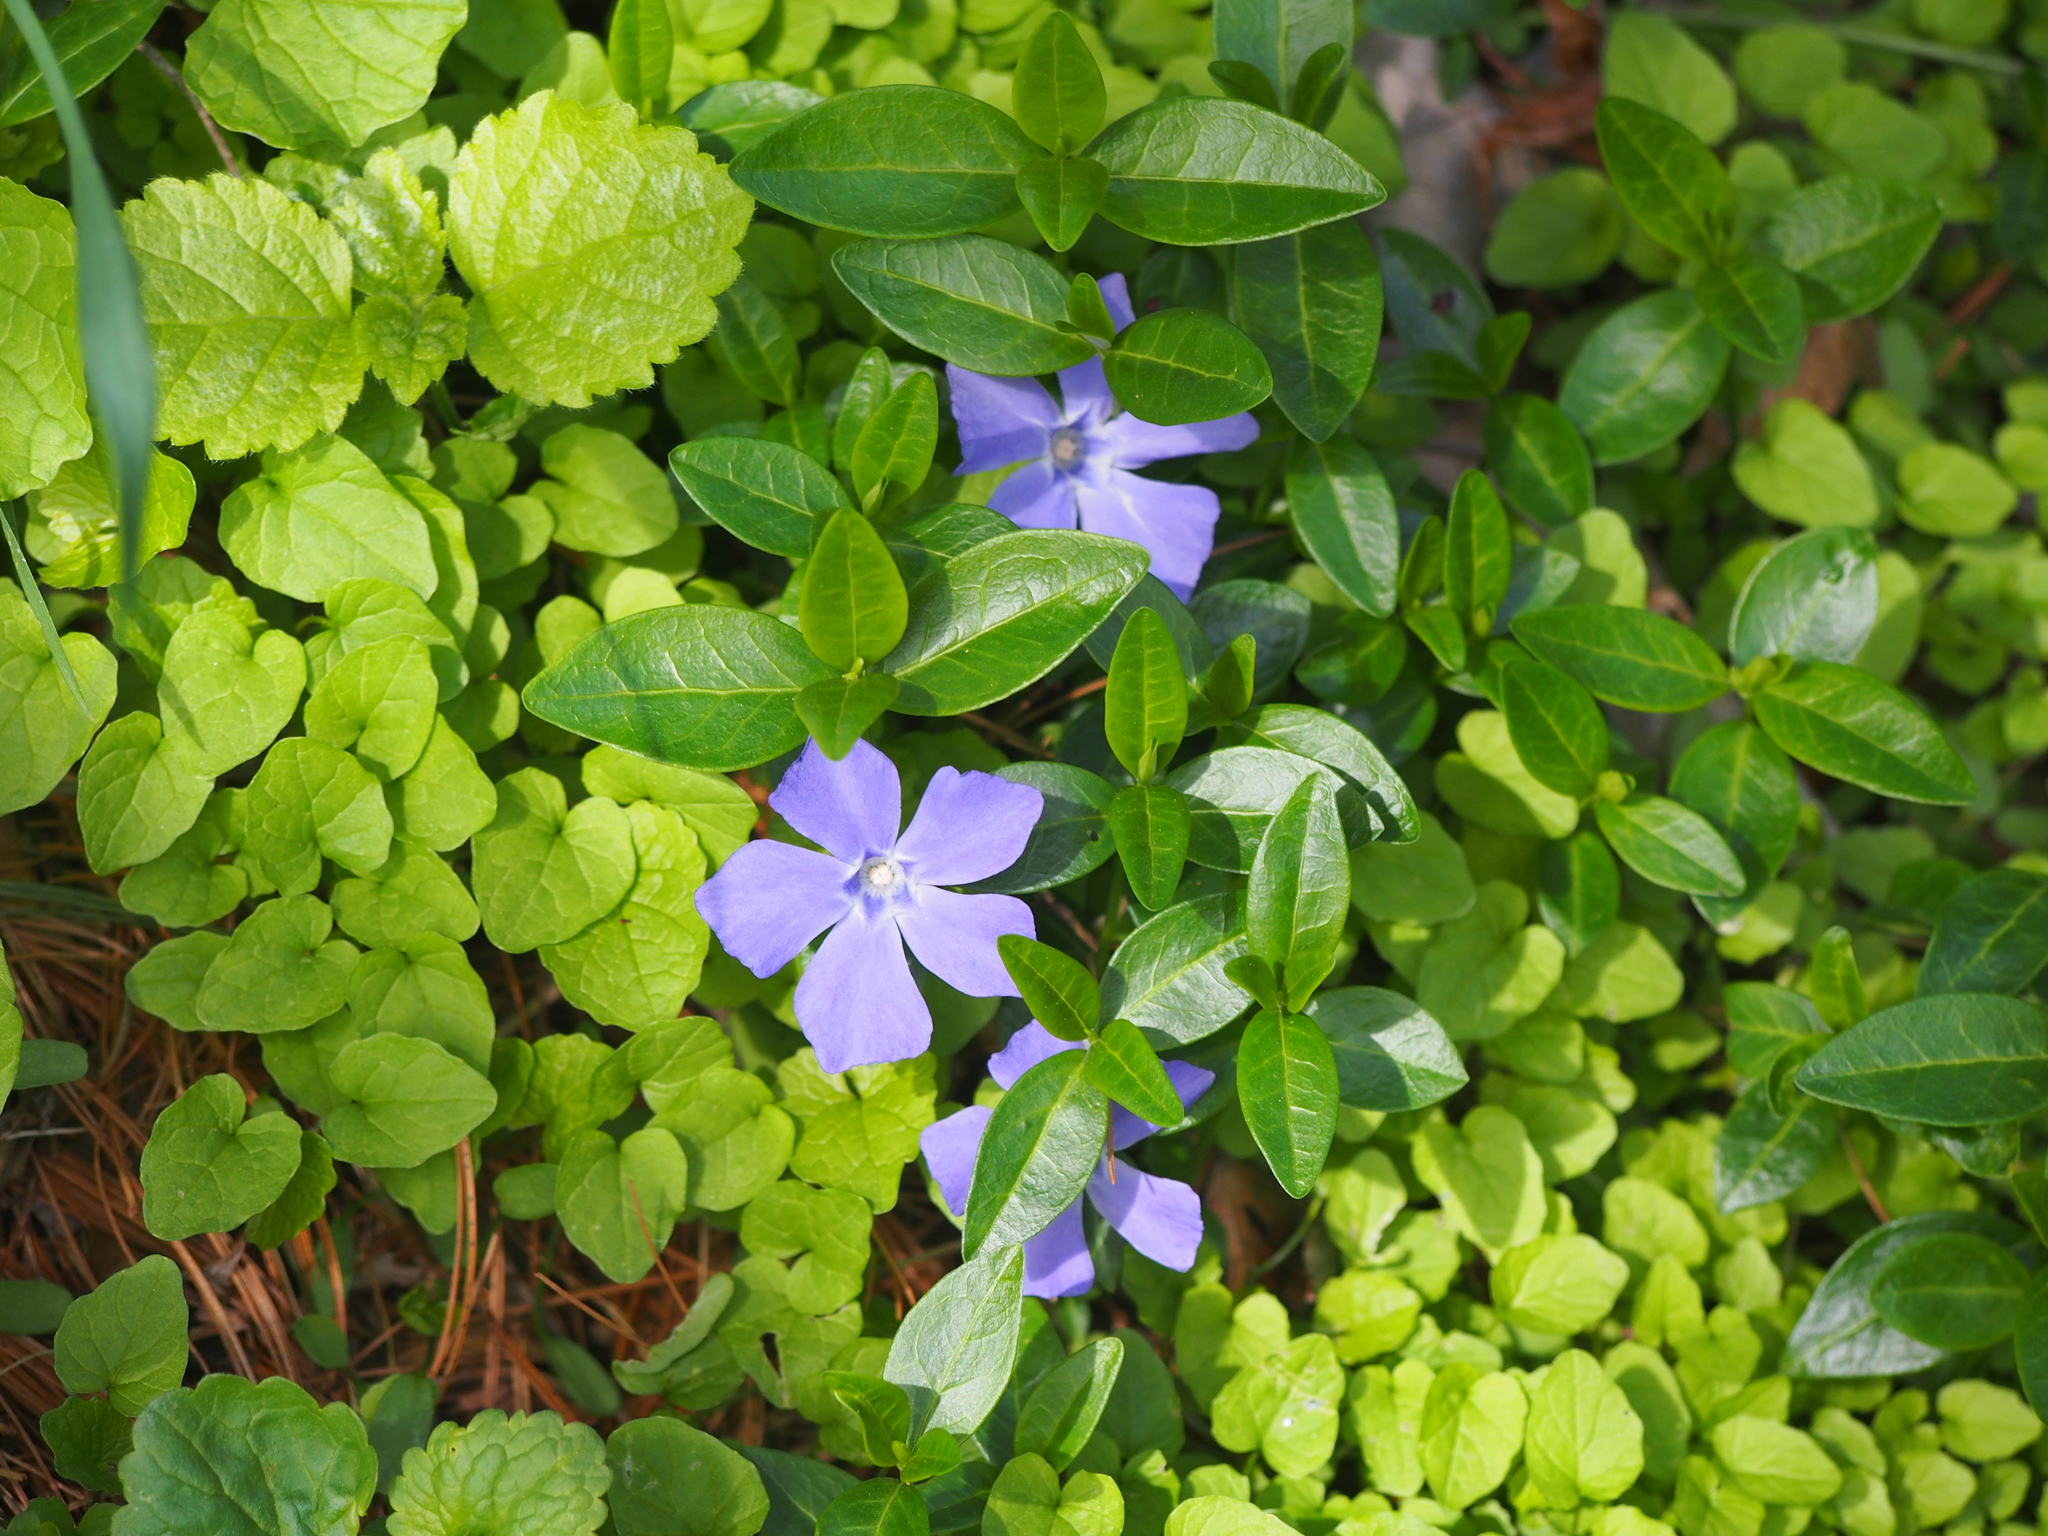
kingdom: Plantae
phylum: Tracheophyta
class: Magnoliopsida
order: Gentianales
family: Apocynaceae
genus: Vinca
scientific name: Vinca minor
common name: Lesser periwinkle
